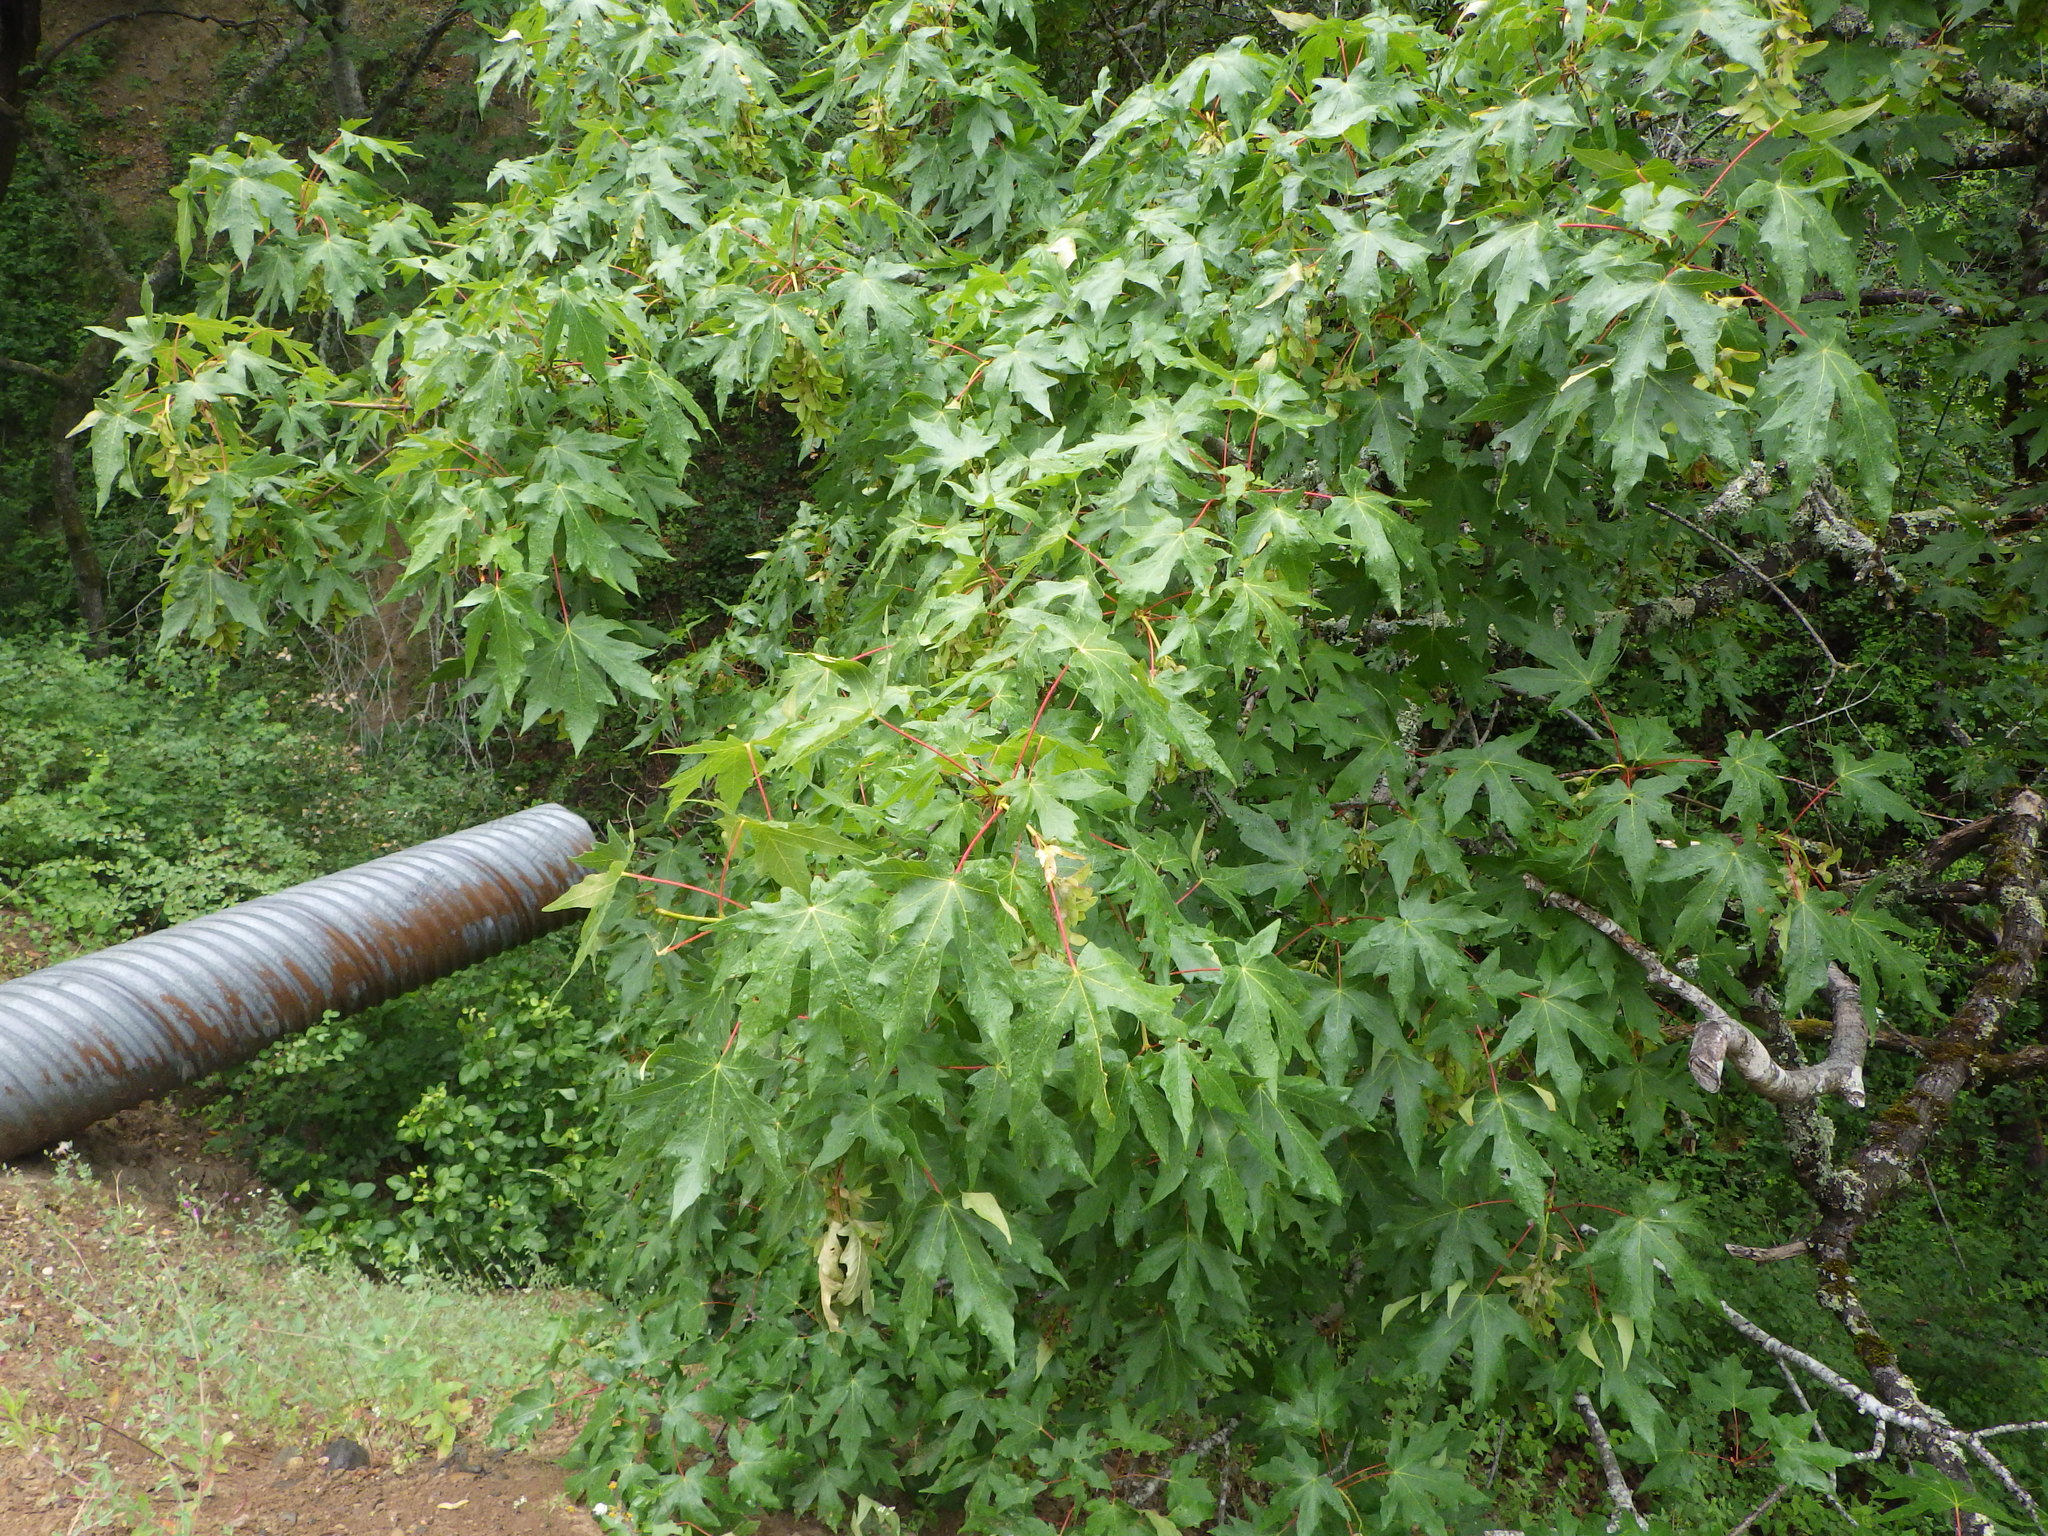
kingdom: Plantae
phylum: Tracheophyta
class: Magnoliopsida
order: Sapindales
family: Sapindaceae
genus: Acer
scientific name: Acer macrophyllum
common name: Oregon maple
